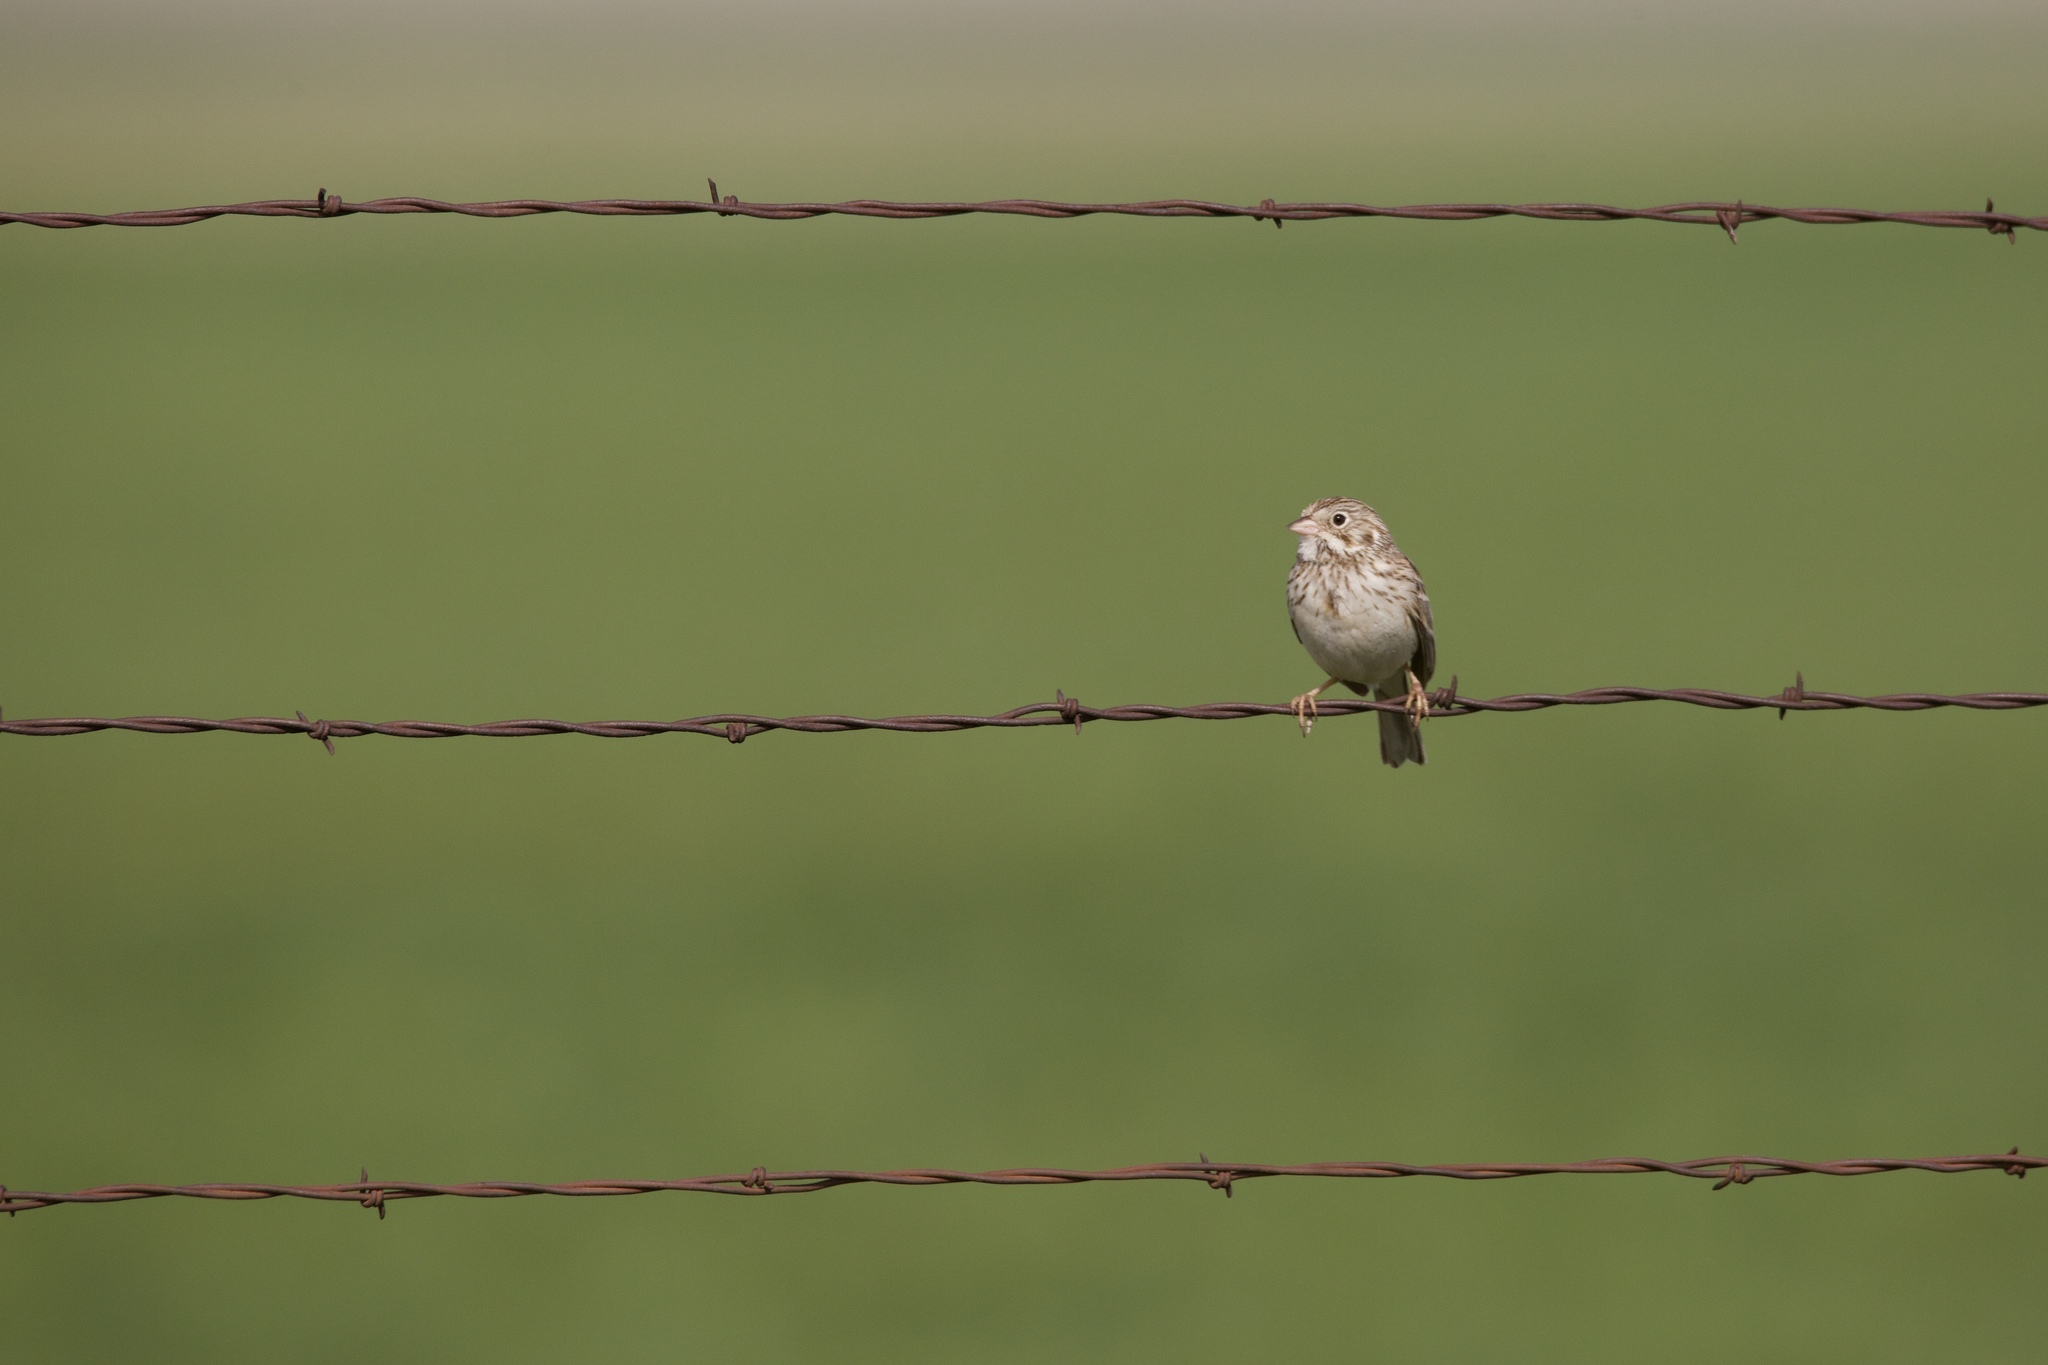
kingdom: Animalia
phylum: Chordata
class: Aves
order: Passeriformes
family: Passerellidae
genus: Pooecetes
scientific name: Pooecetes gramineus
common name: Vesper sparrow
